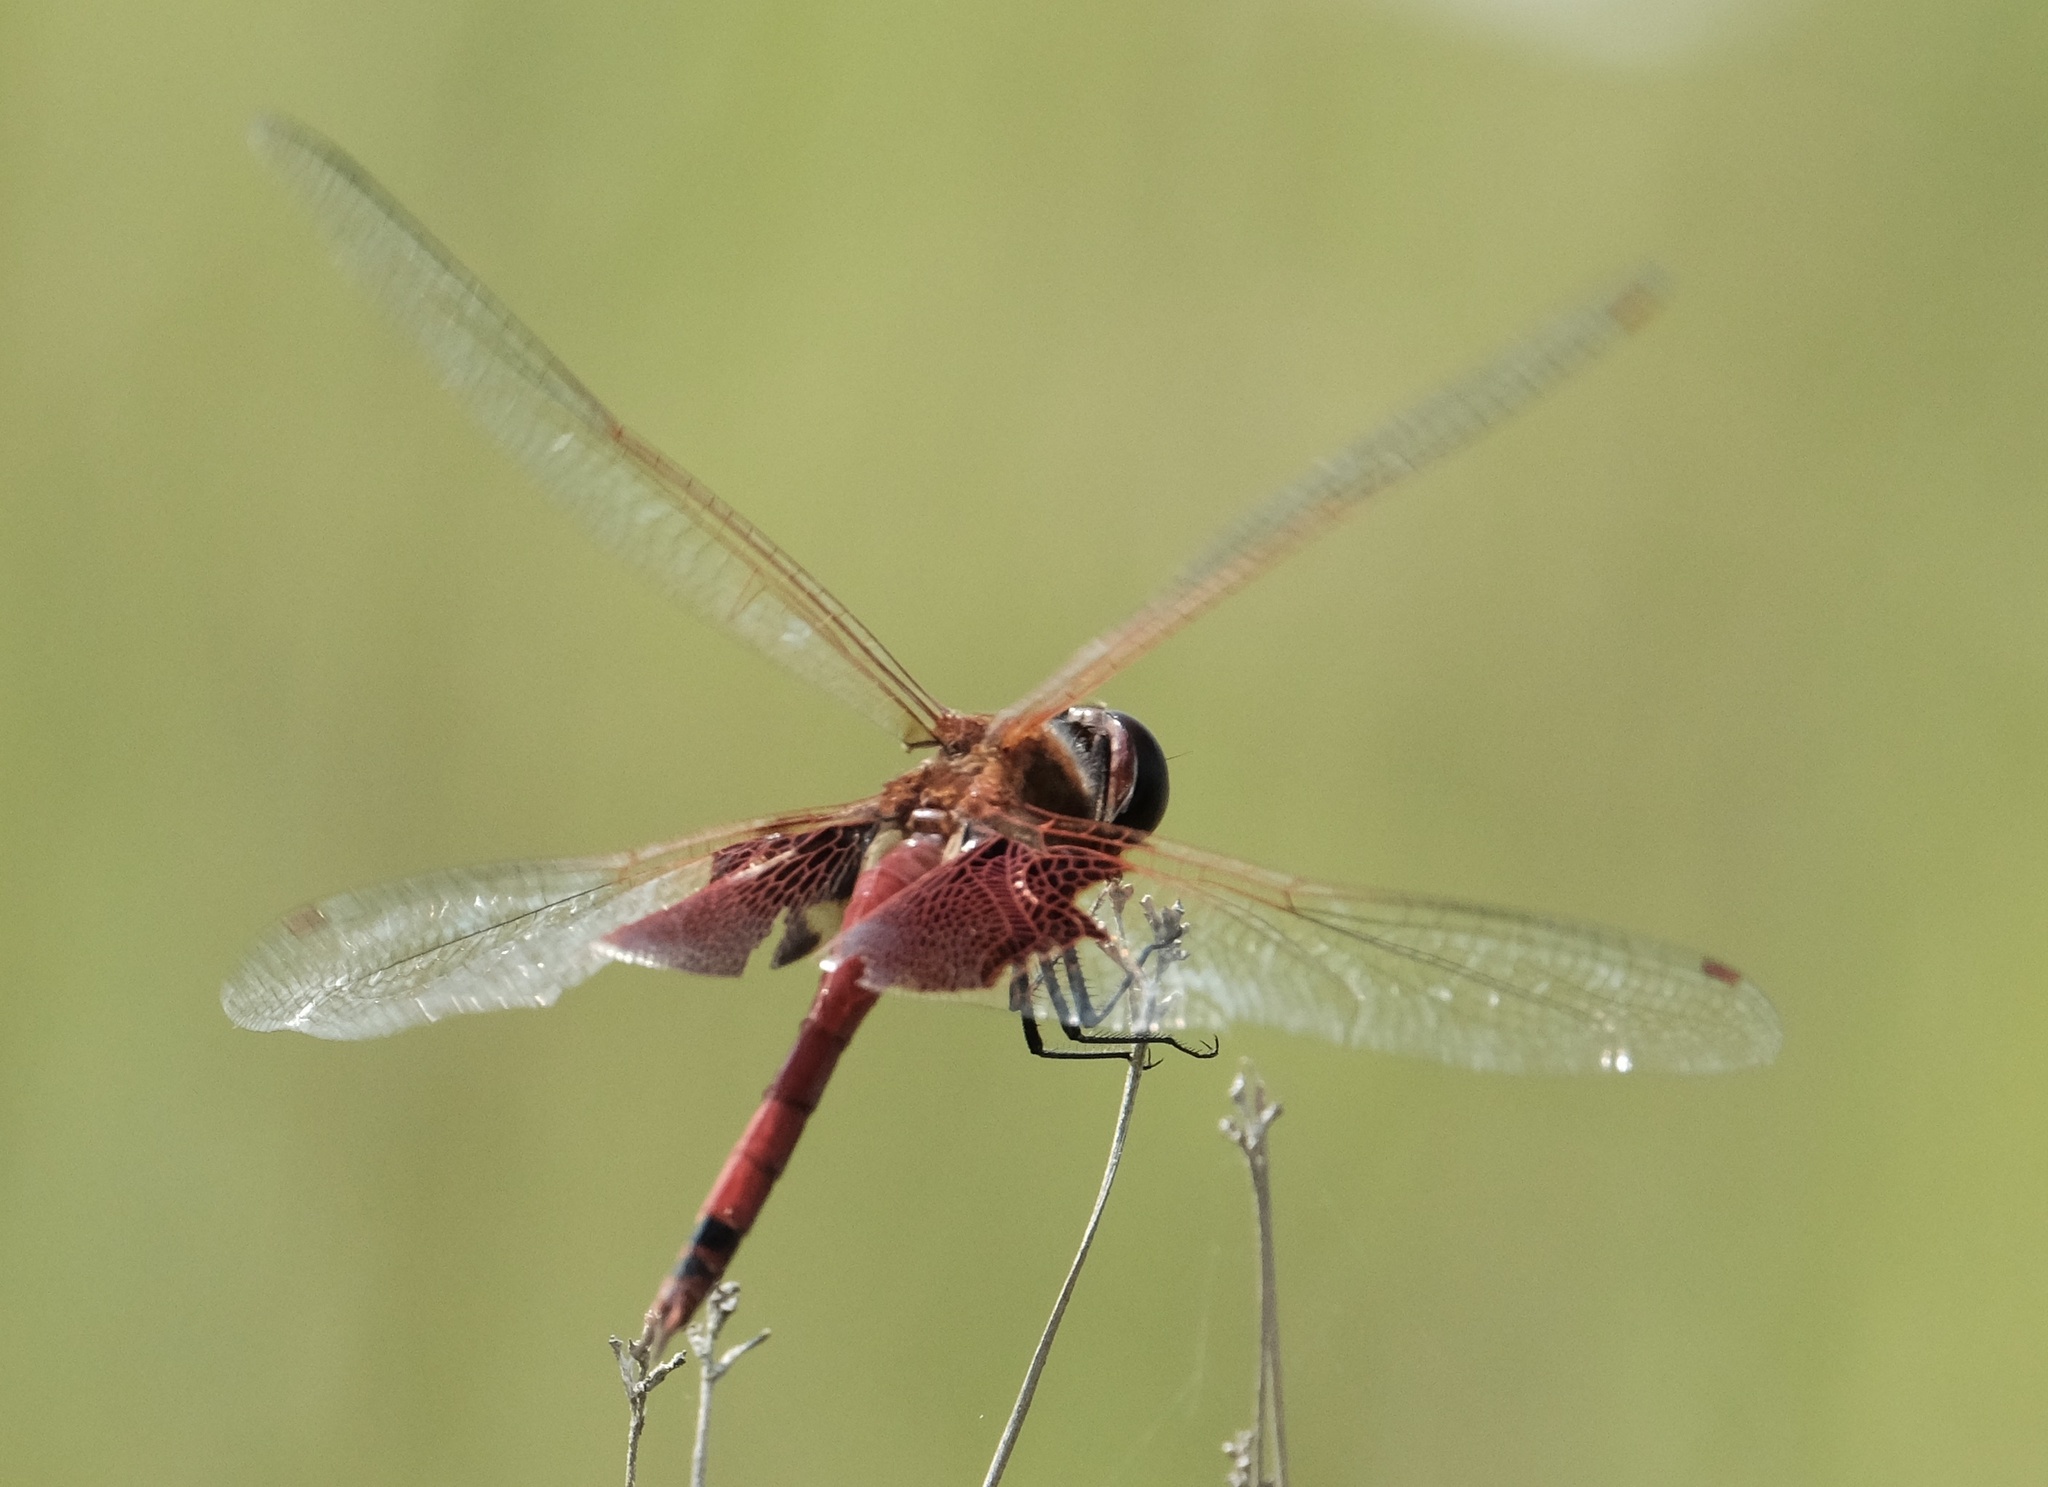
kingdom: Animalia
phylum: Arthropoda
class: Insecta
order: Odonata
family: Libellulidae
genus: Tramea
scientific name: Tramea carolina
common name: Carolina saddlebags
